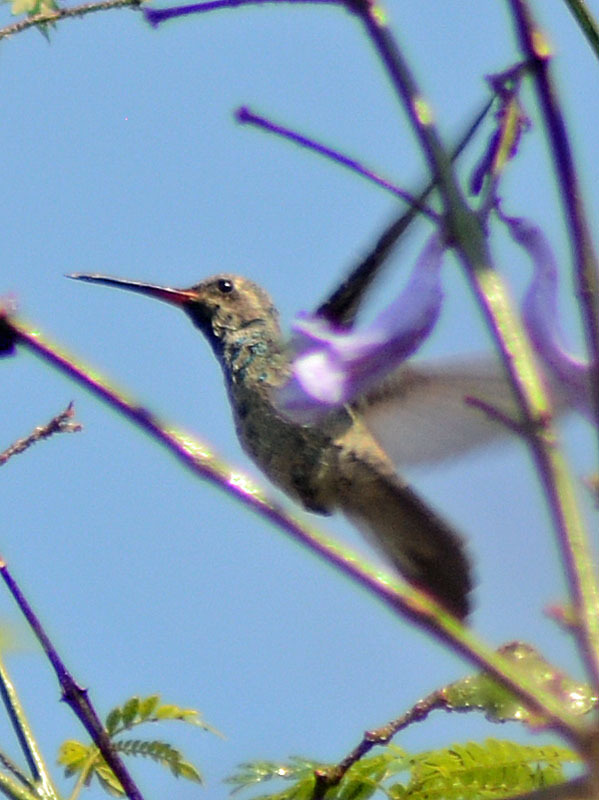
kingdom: Animalia
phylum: Chordata
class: Aves
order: Apodiformes
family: Trochilidae
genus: Cynanthus
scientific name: Cynanthus latirostris
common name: Broad-billed hummingbird
